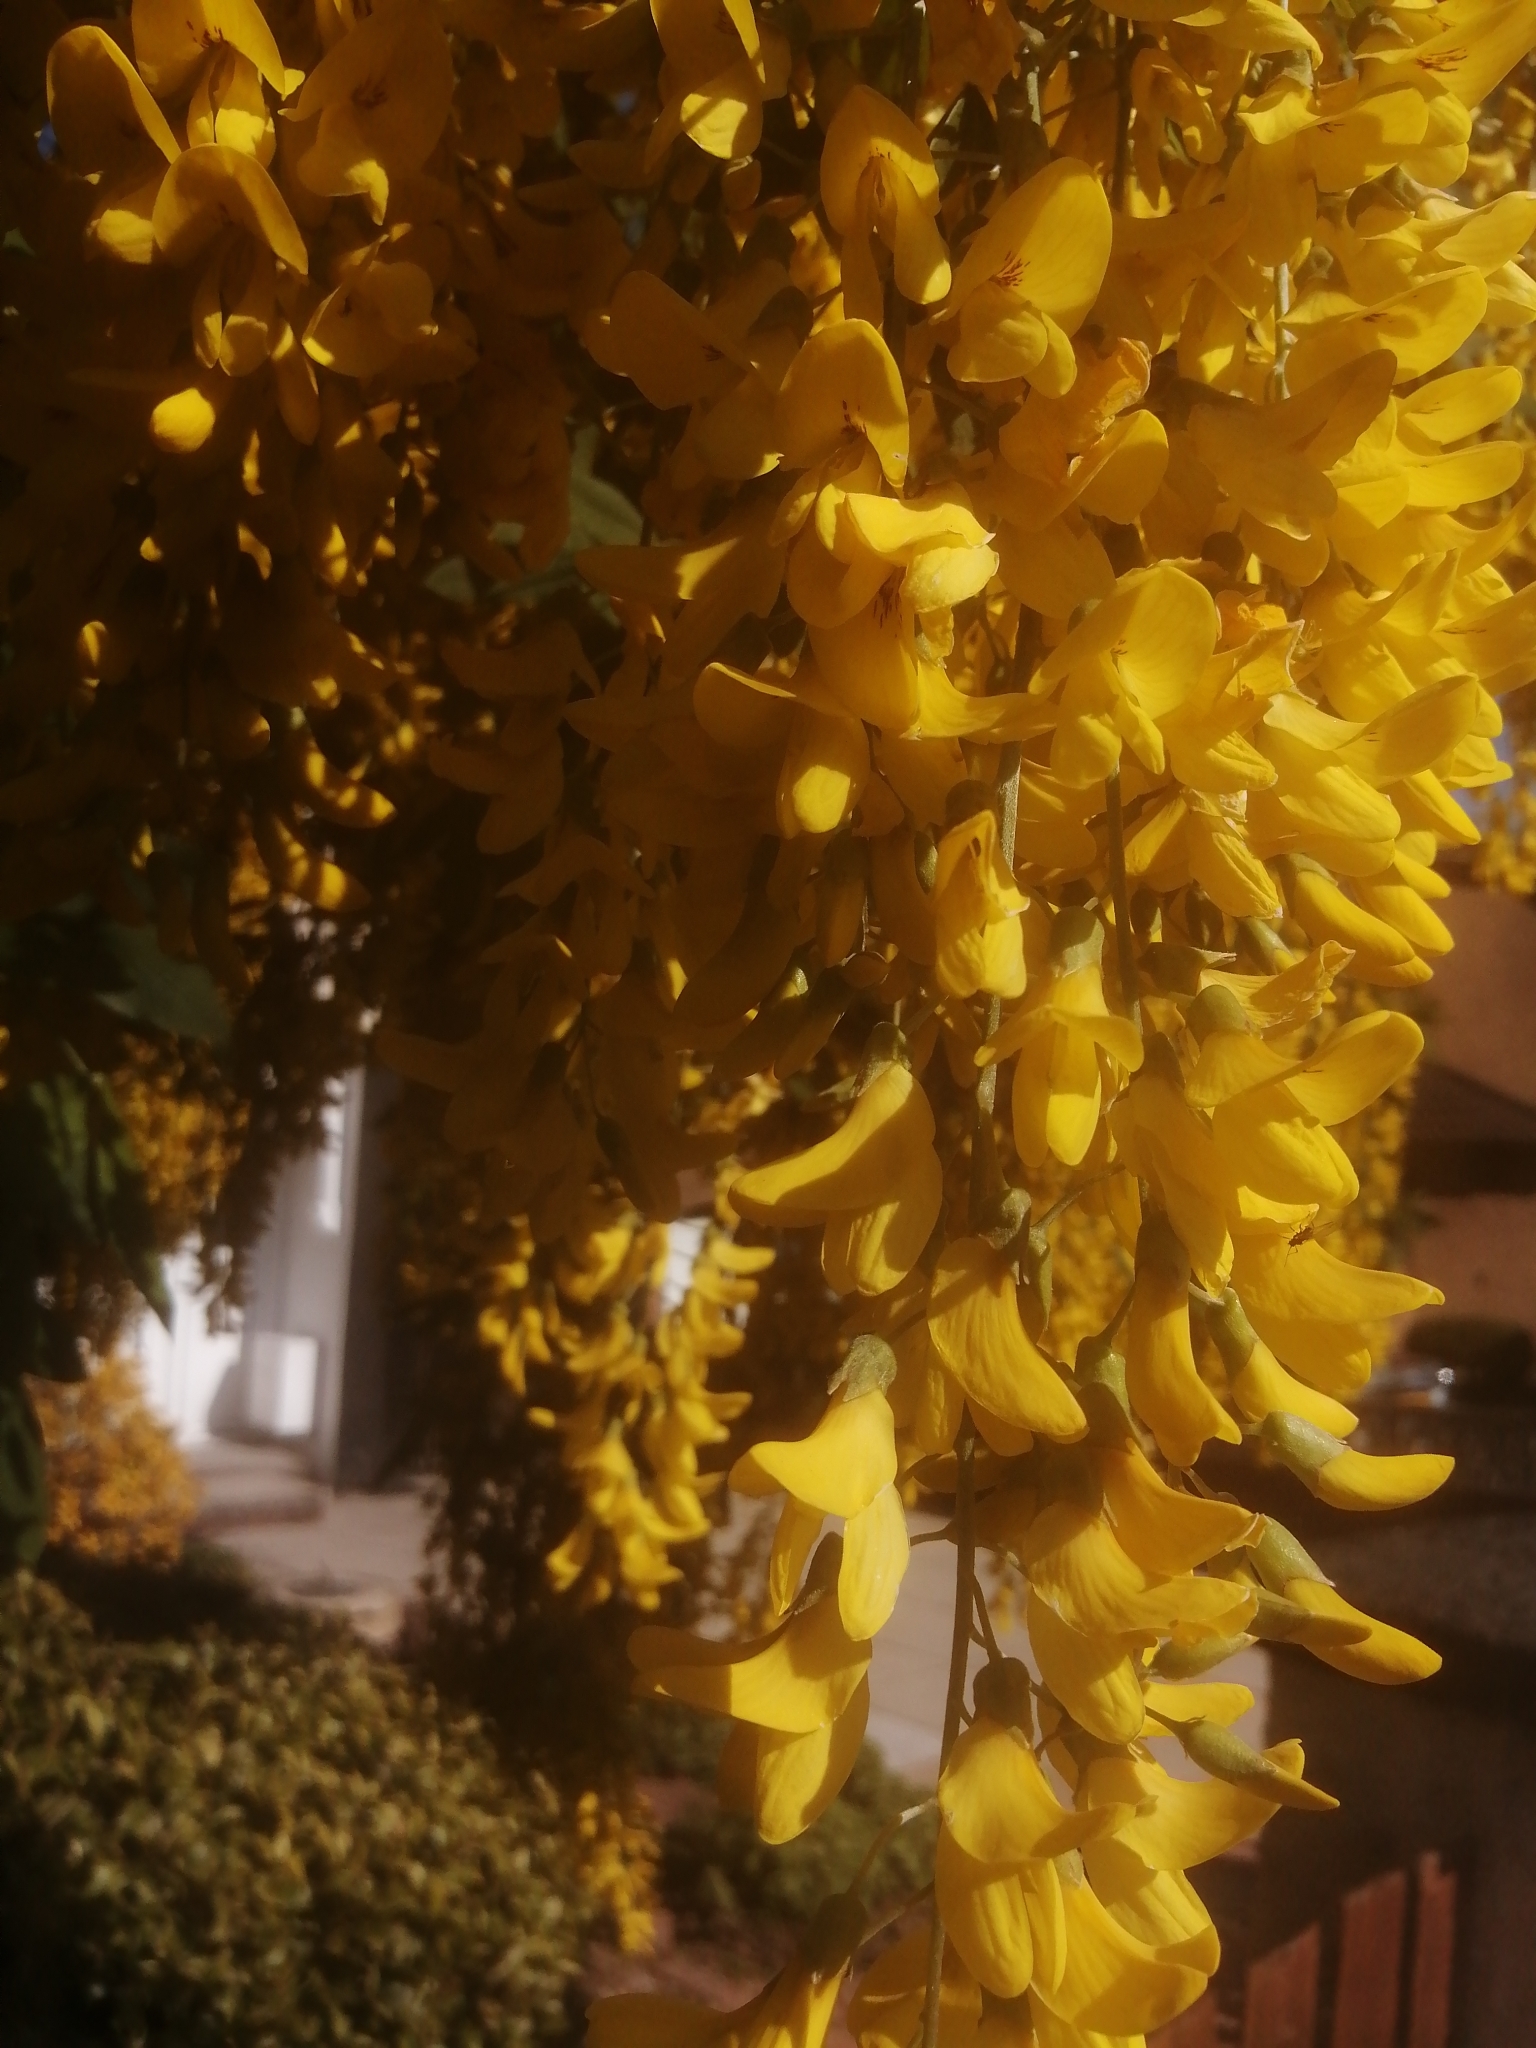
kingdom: Plantae
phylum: Tracheophyta
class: Magnoliopsida
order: Fabales
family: Fabaceae
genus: Laburnum
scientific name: Laburnum anagyroides
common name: Laburnum
